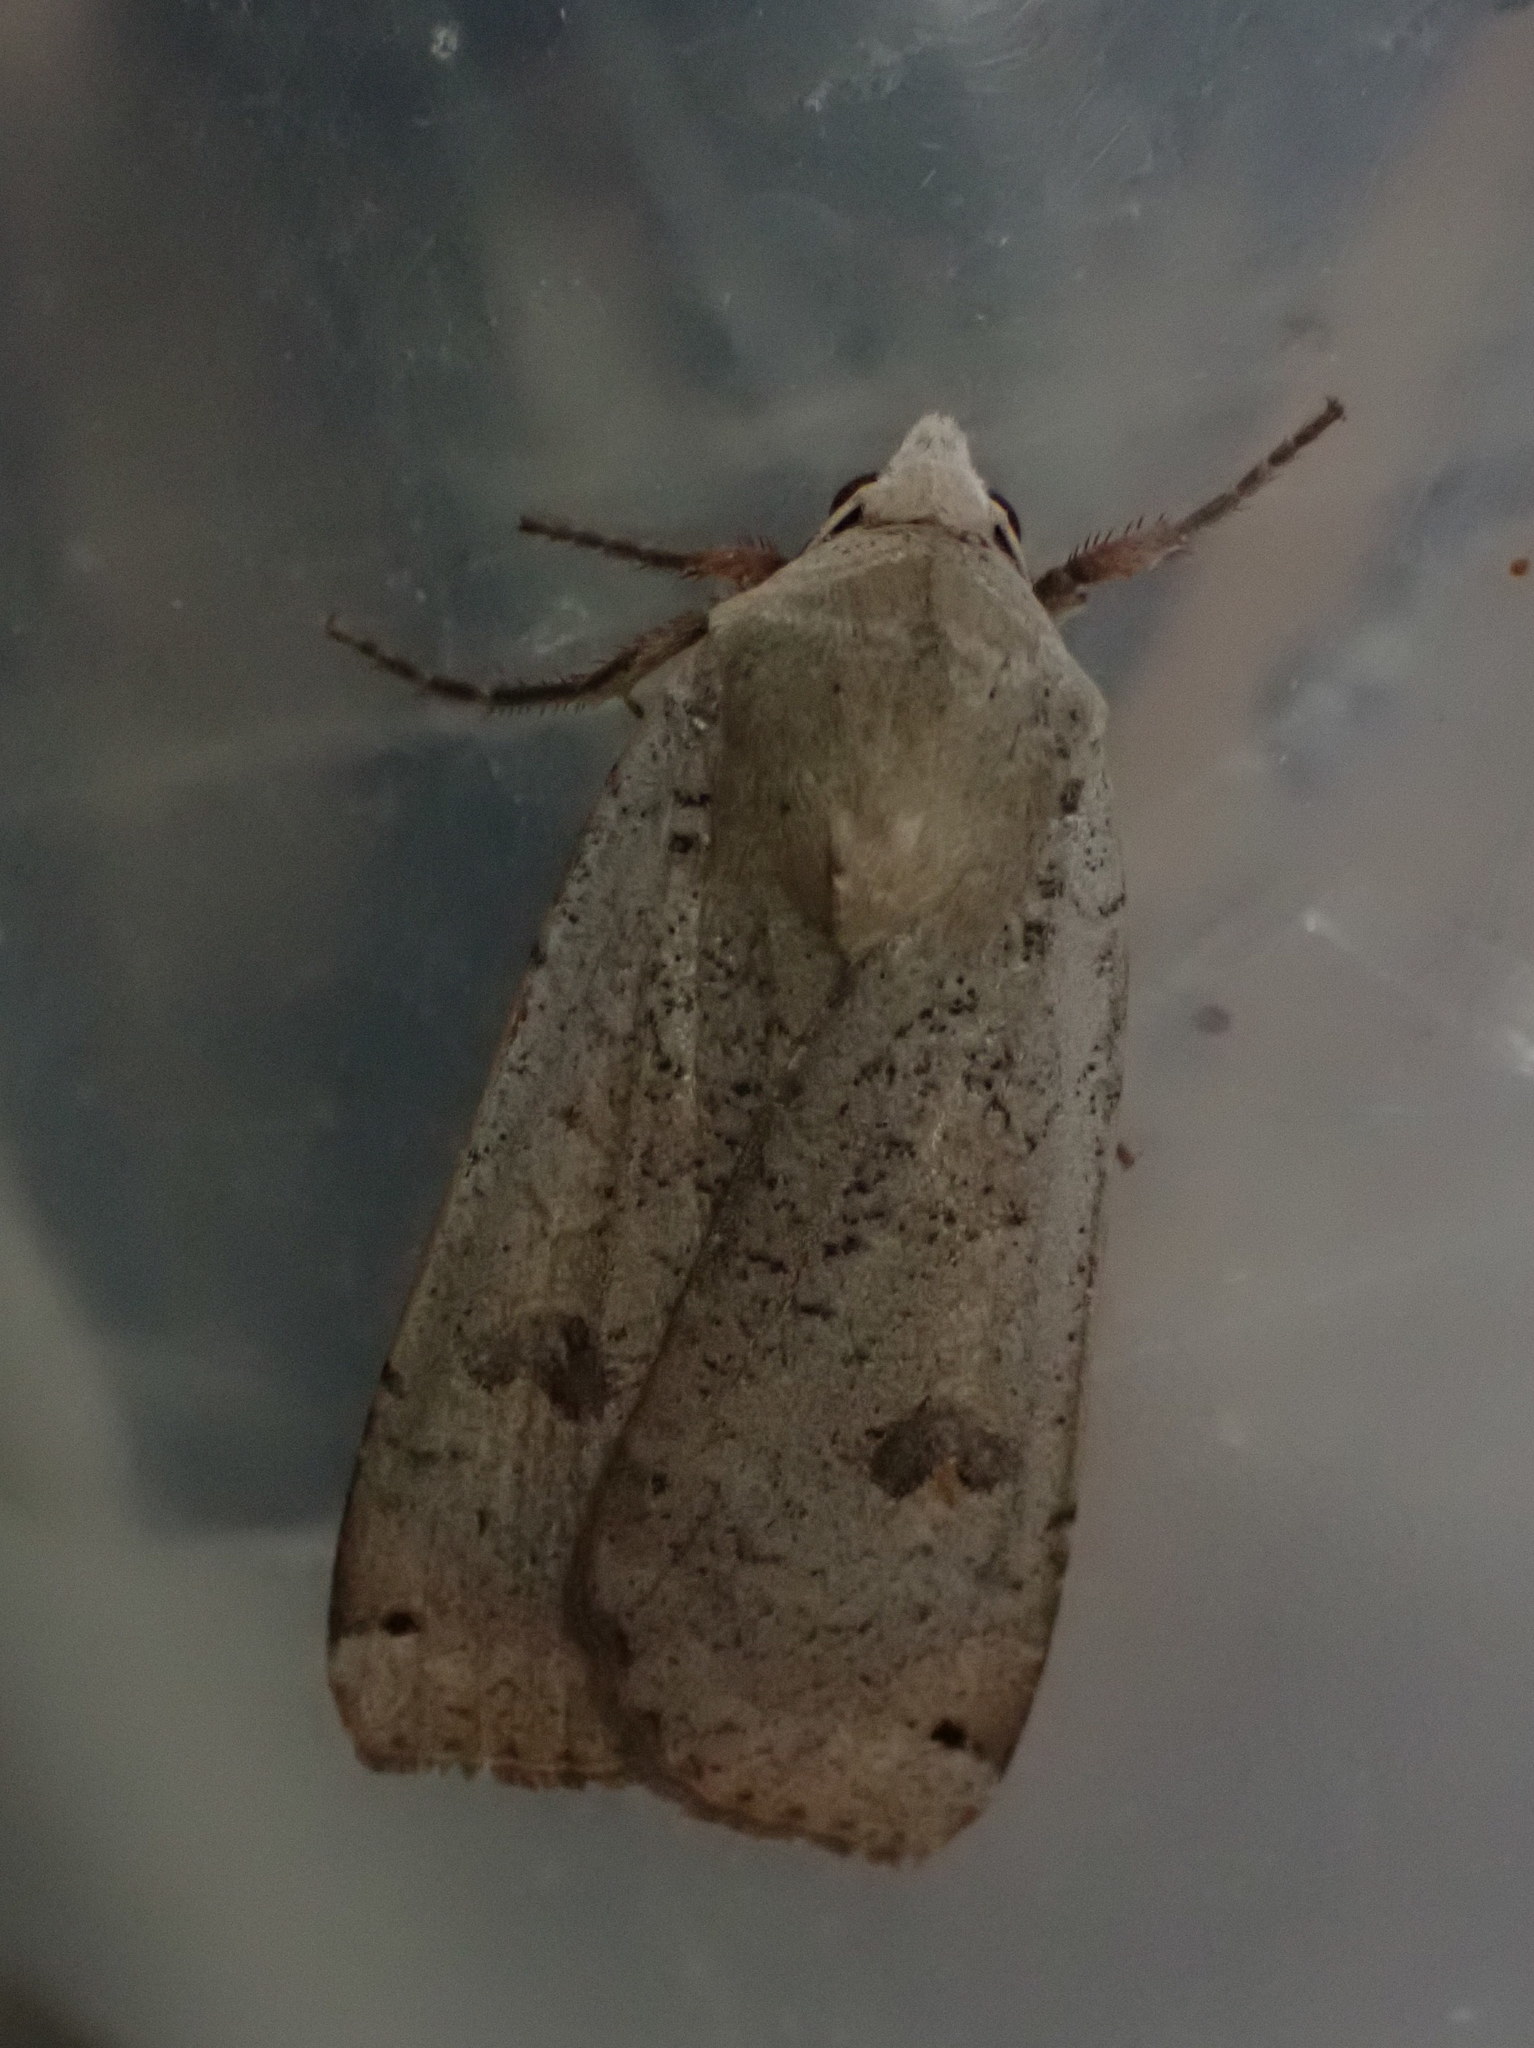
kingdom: Animalia
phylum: Arthropoda
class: Insecta
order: Lepidoptera
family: Noctuidae
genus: Noctua
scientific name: Noctua pronuba
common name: Large yellow underwing
